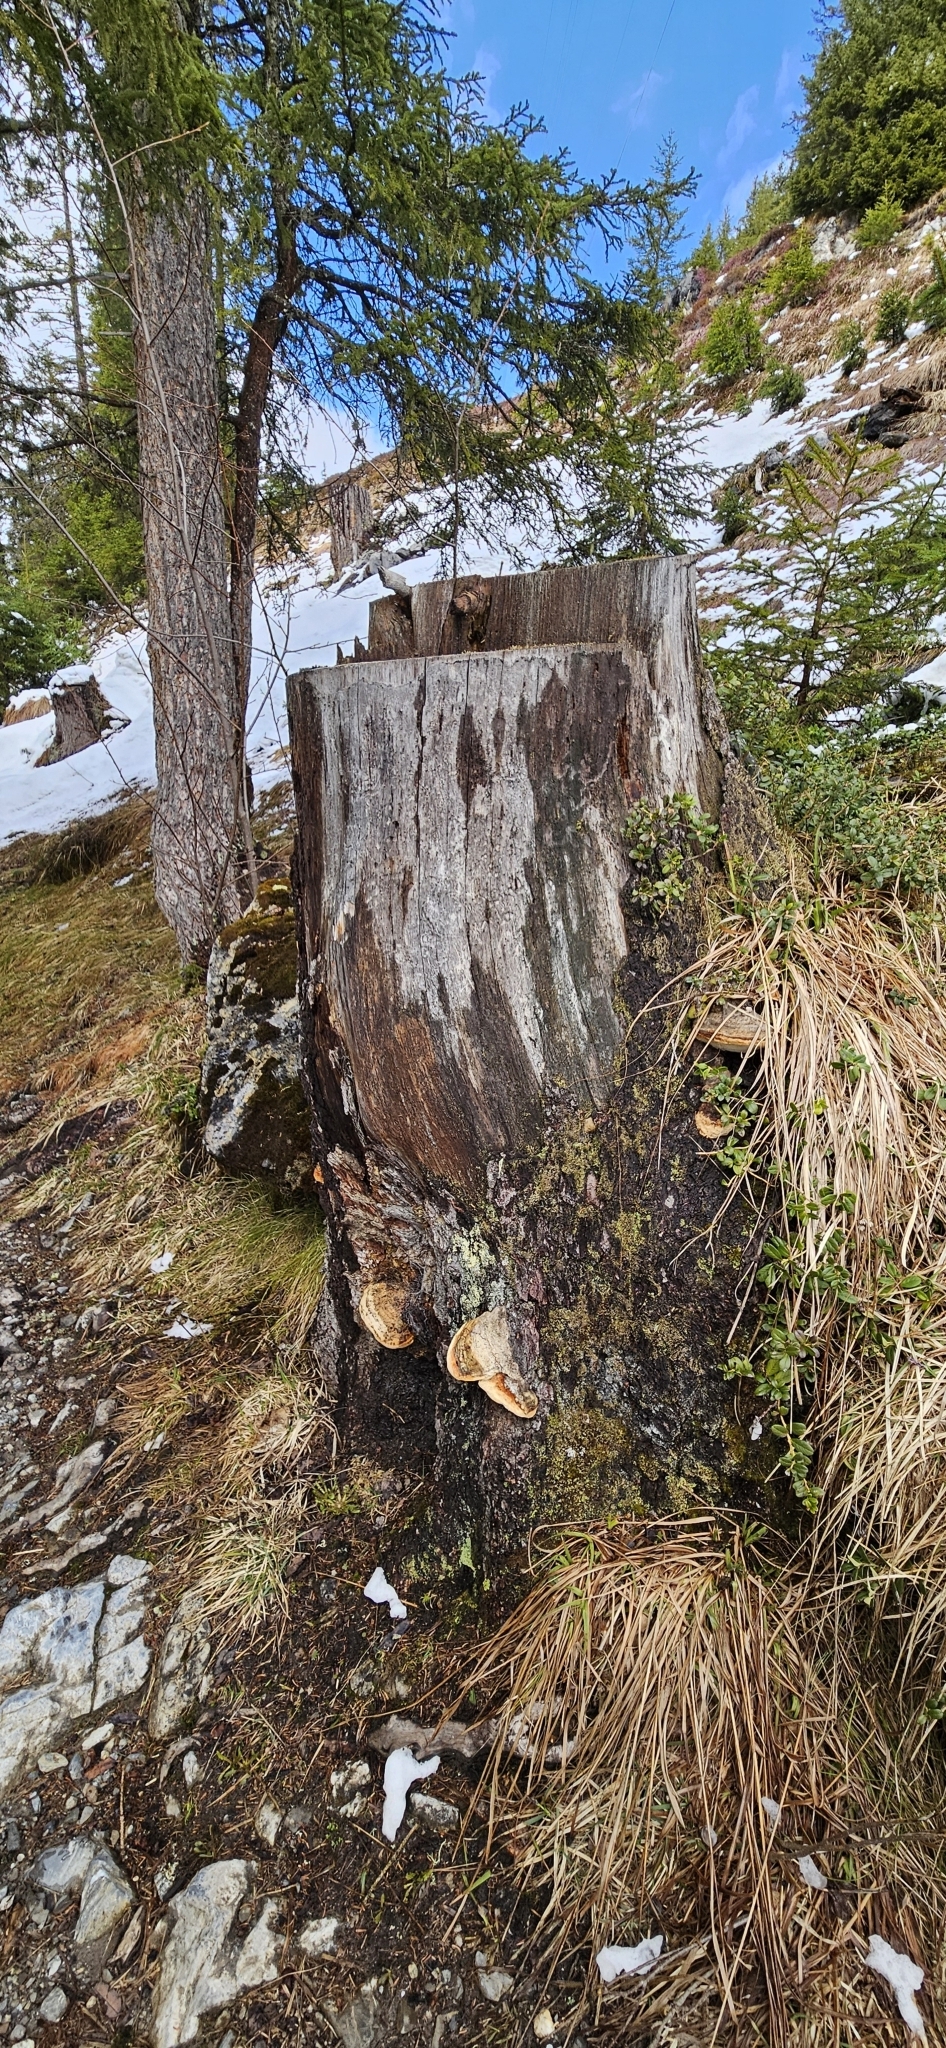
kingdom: Fungi
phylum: Basidiomycota
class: Agaricomycetes
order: Polyporales
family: Fomitopsidaceae
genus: Fomitopsis
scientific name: Fomitopsis pinicola
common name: Red-belted bracket
